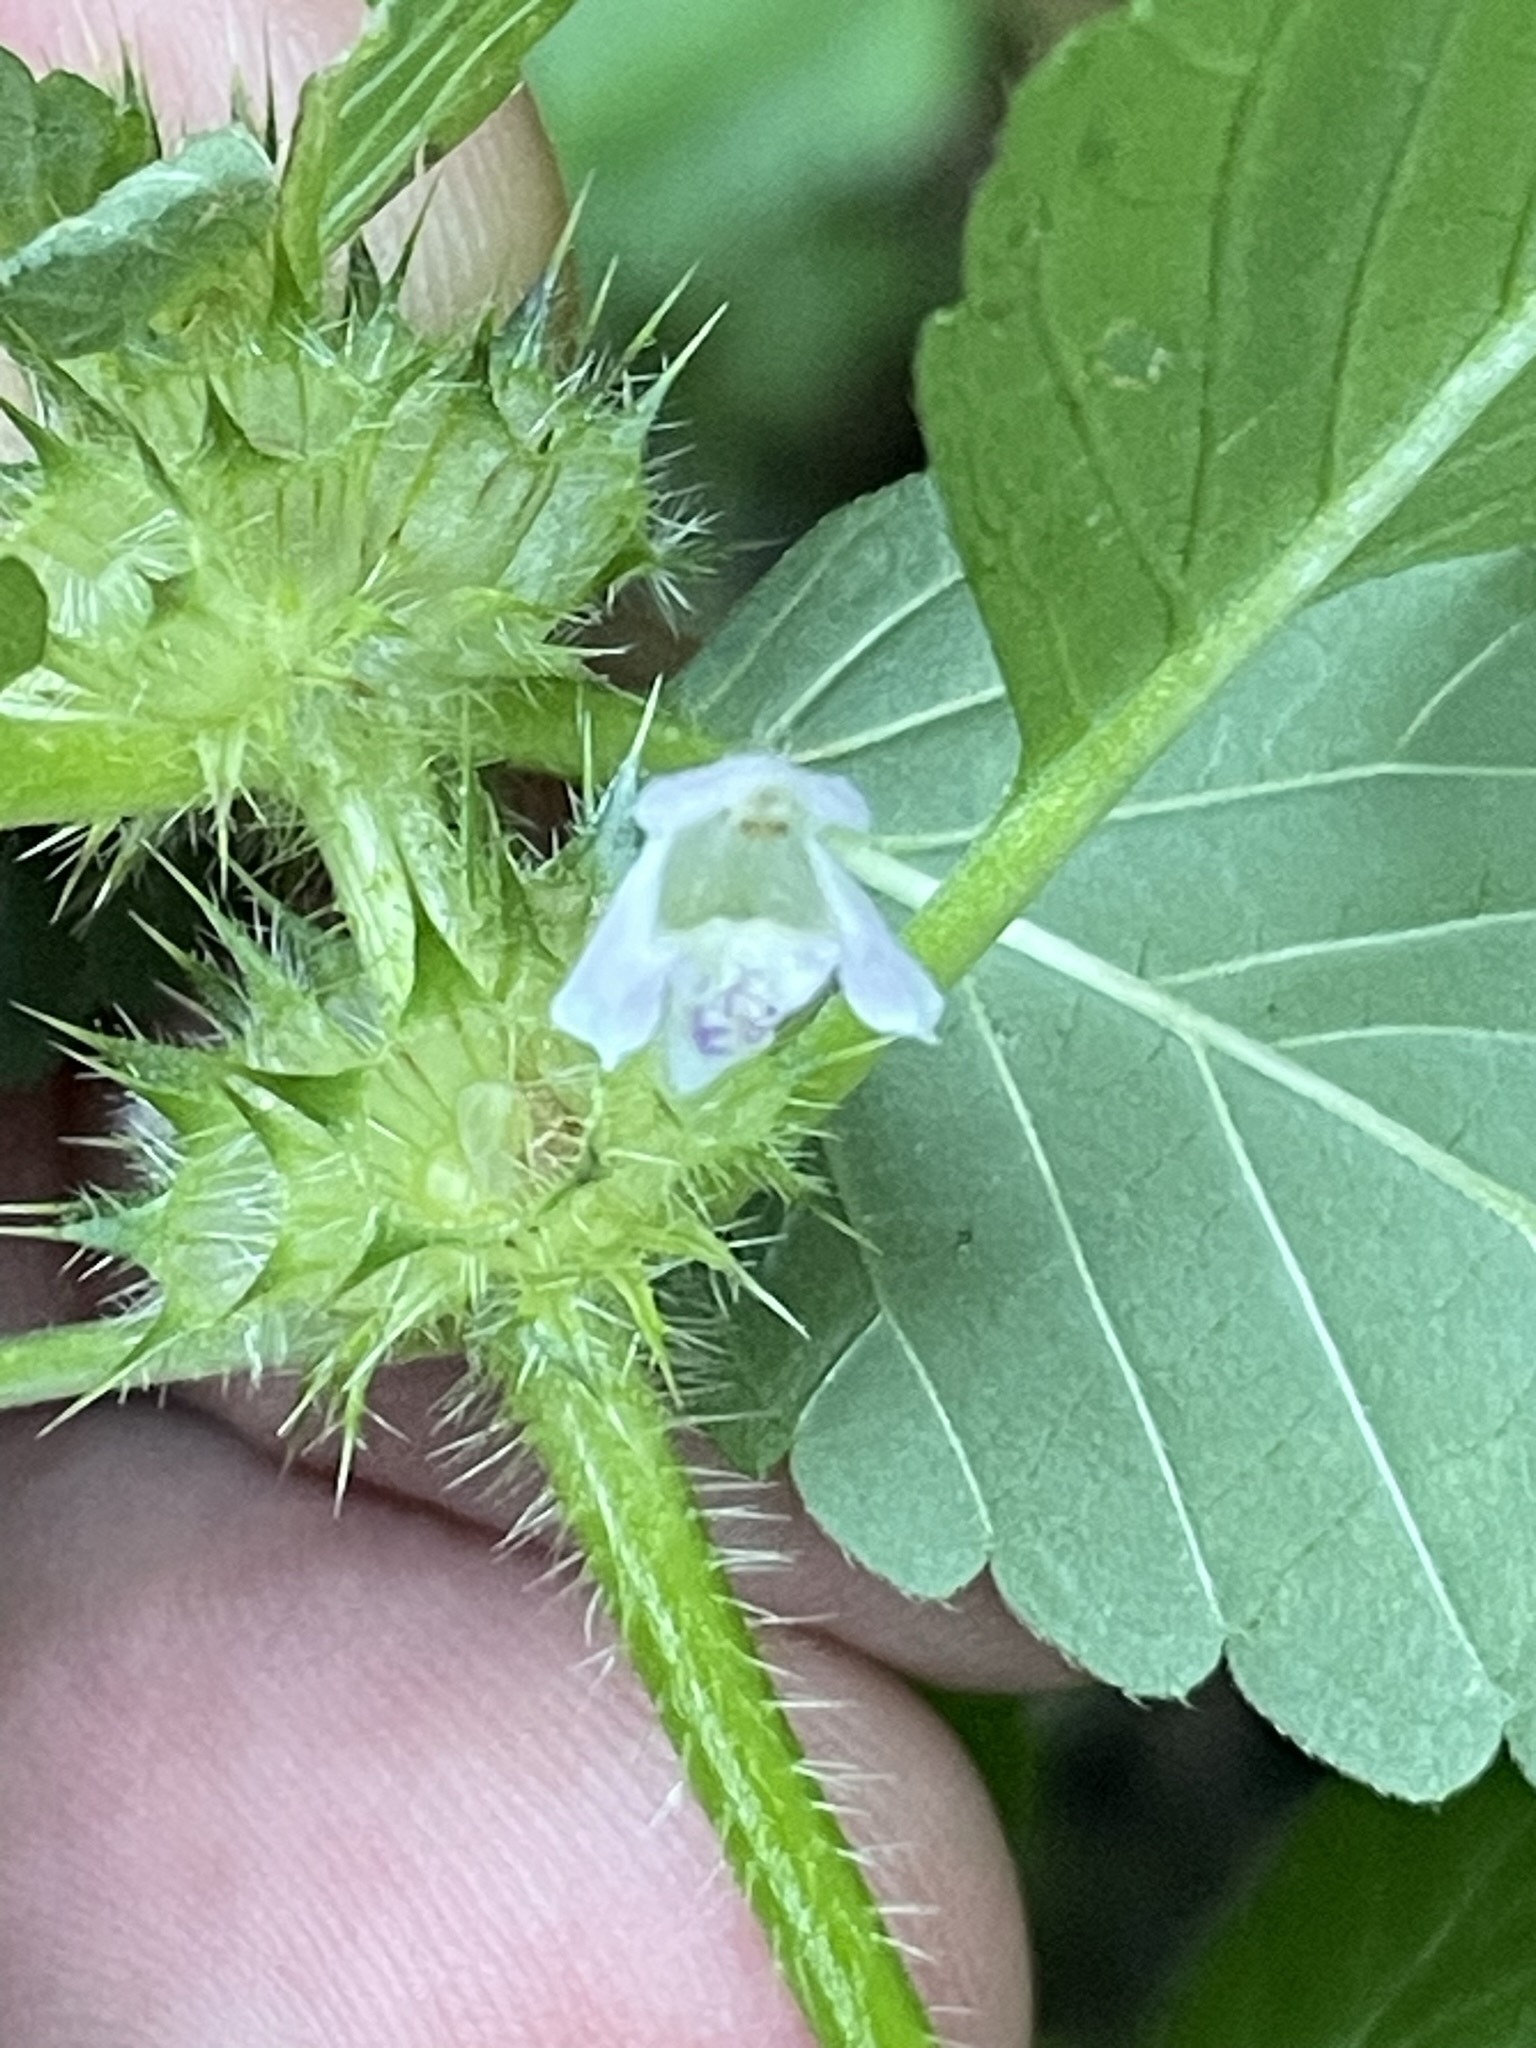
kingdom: Plantae
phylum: Tracheophyta
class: Magnoliopsida
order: Lamiales
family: Lamiaceae
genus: Galeopsis
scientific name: Galeopsis tetrahit
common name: Common hemp-nettle
